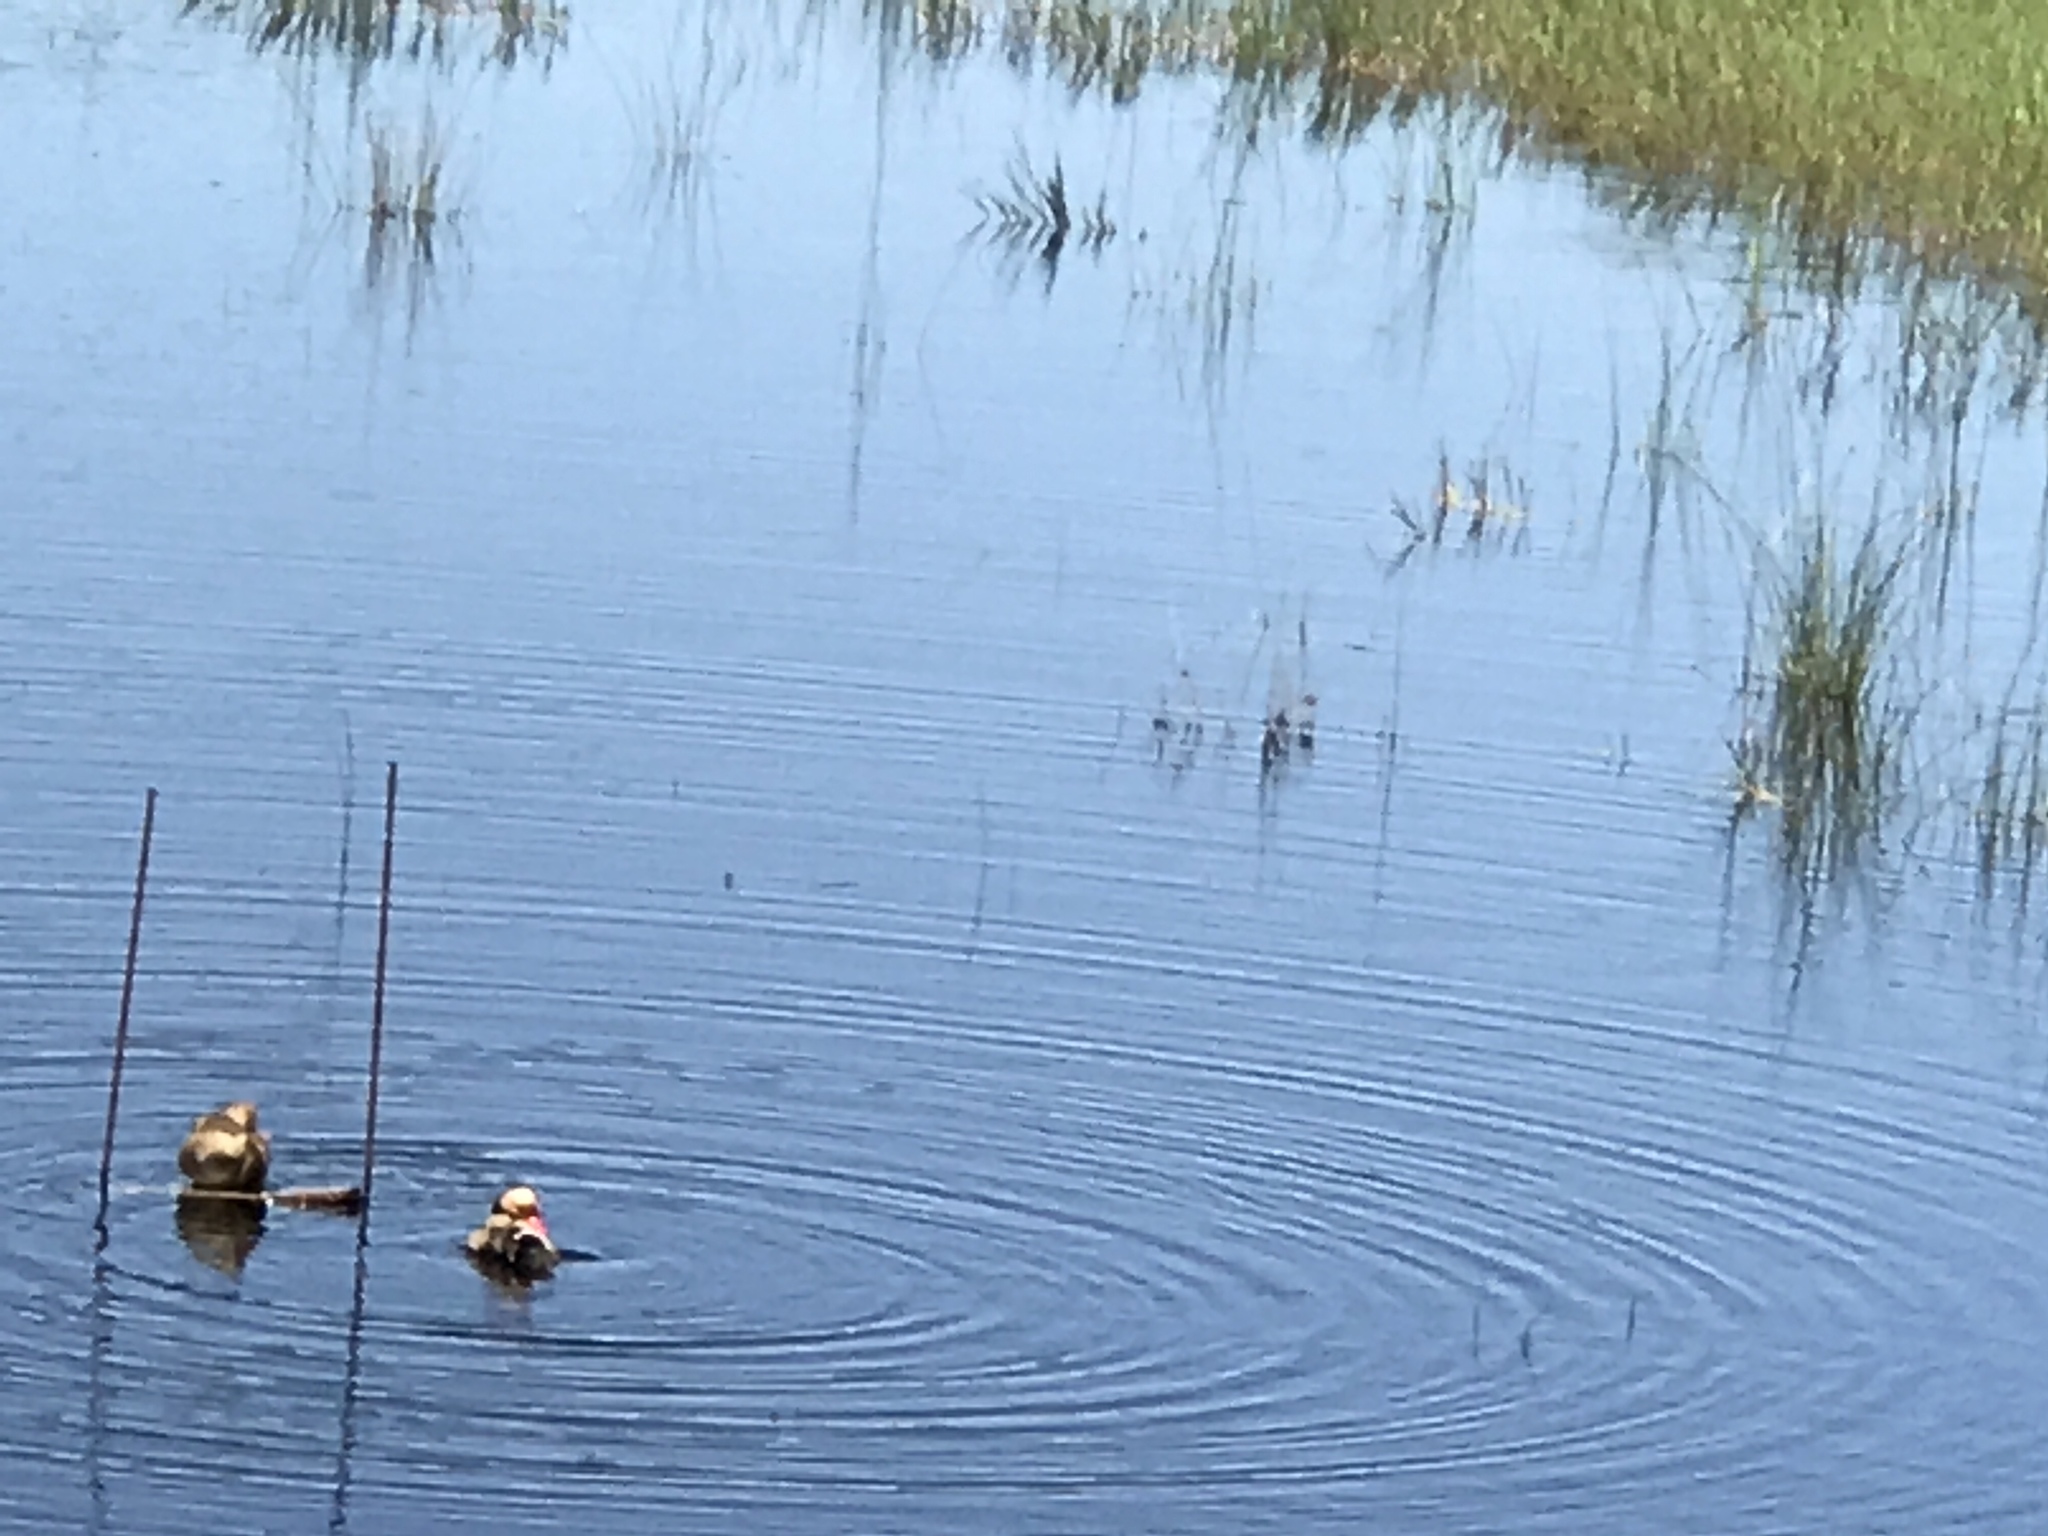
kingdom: Animalia
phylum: Chordata
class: Aves
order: Anseriformes
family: Anatidae
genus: Netta
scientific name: Netta rufina
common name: Red-crested pochard
